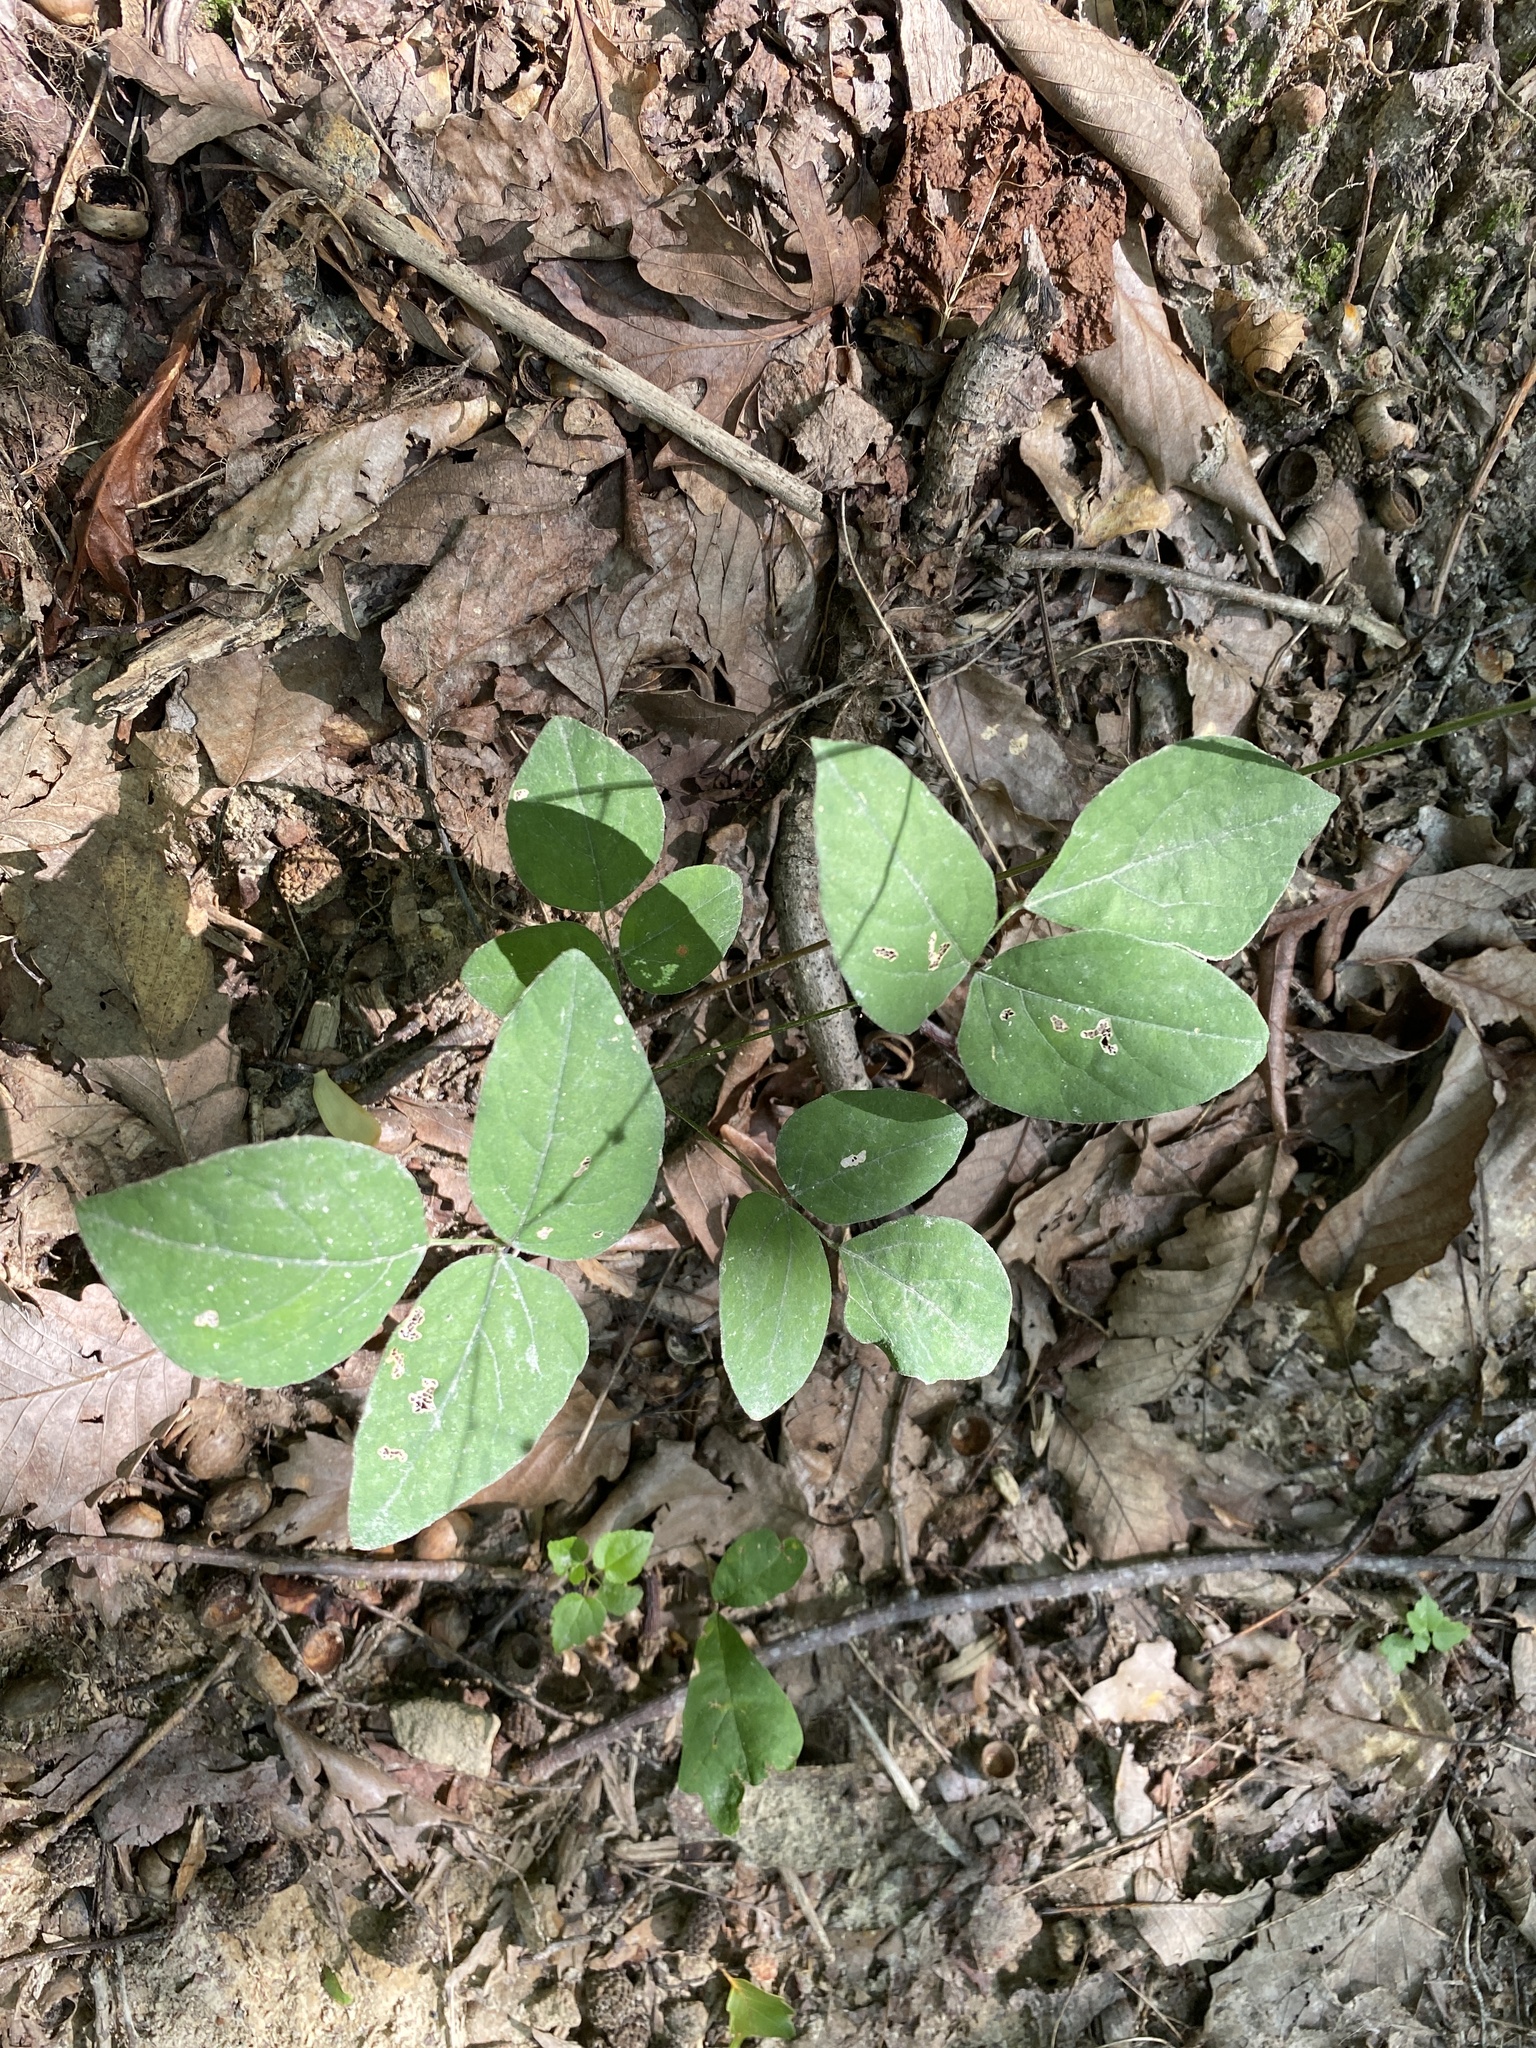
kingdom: Plantae
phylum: Tracheophyta
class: Magnoliopsida
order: Fabales
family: Fabaceae
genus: Hylodesmum
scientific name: Hylodesmum nudiflorum
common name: Bare-stemmed tick-trefoil
